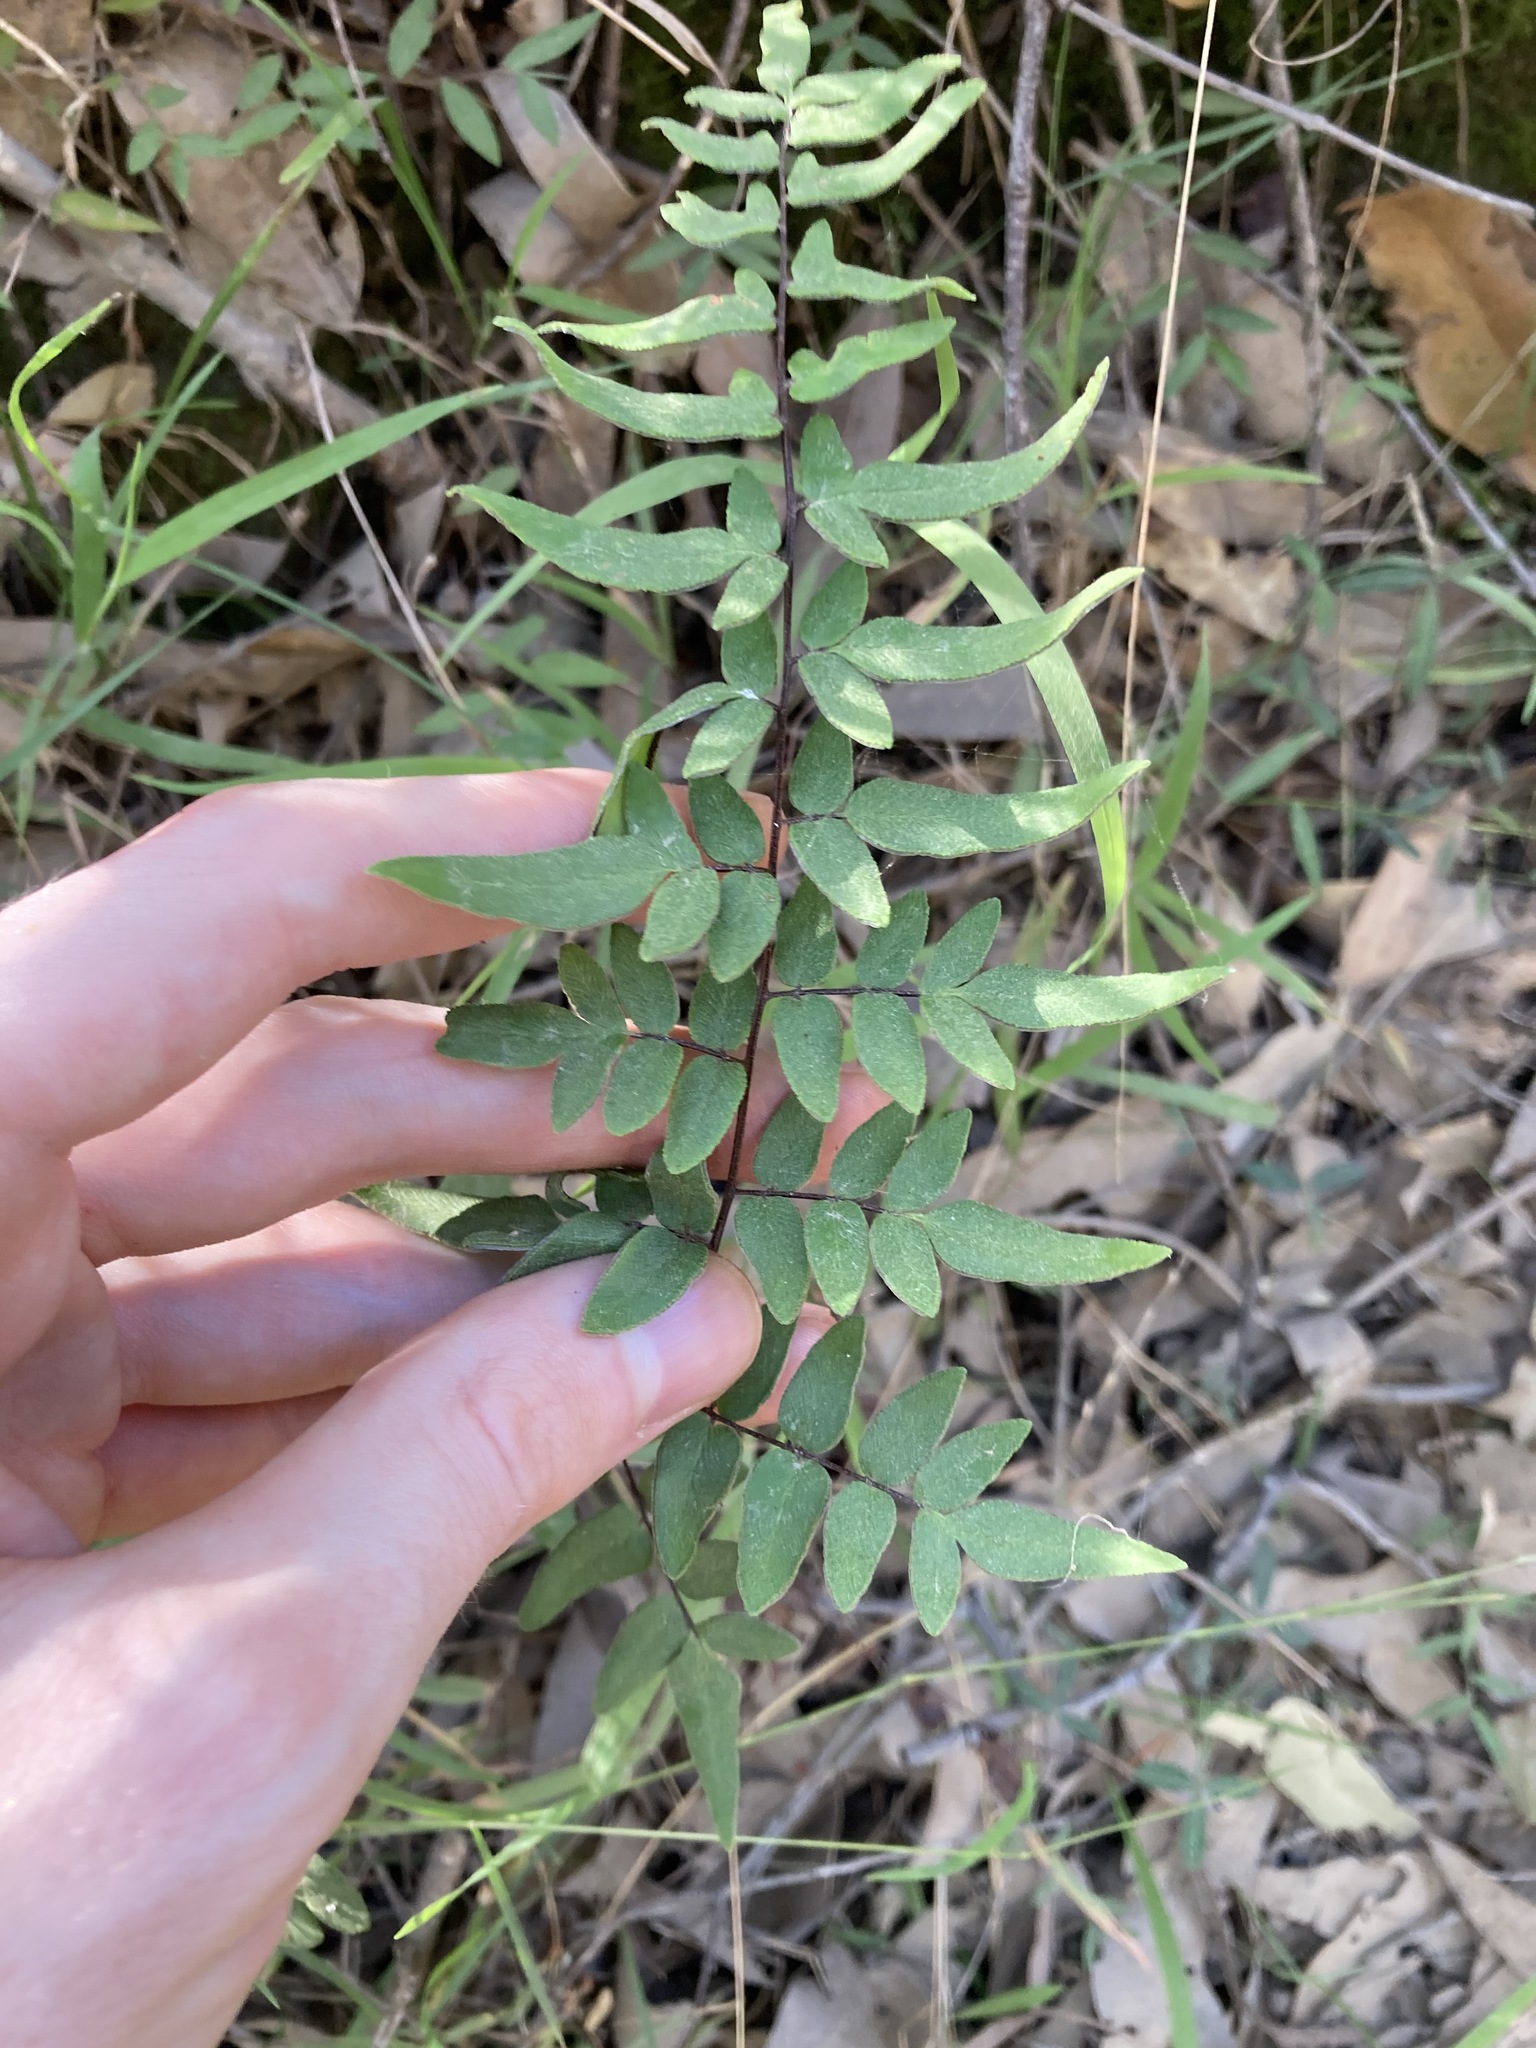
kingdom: Plantae
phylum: Tracheophyta
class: Polypodiopsida
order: Polypodiales
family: Pteridaceae
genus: Cheilanthes
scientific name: Cheilanthes viridis
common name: Green cliffbrake
